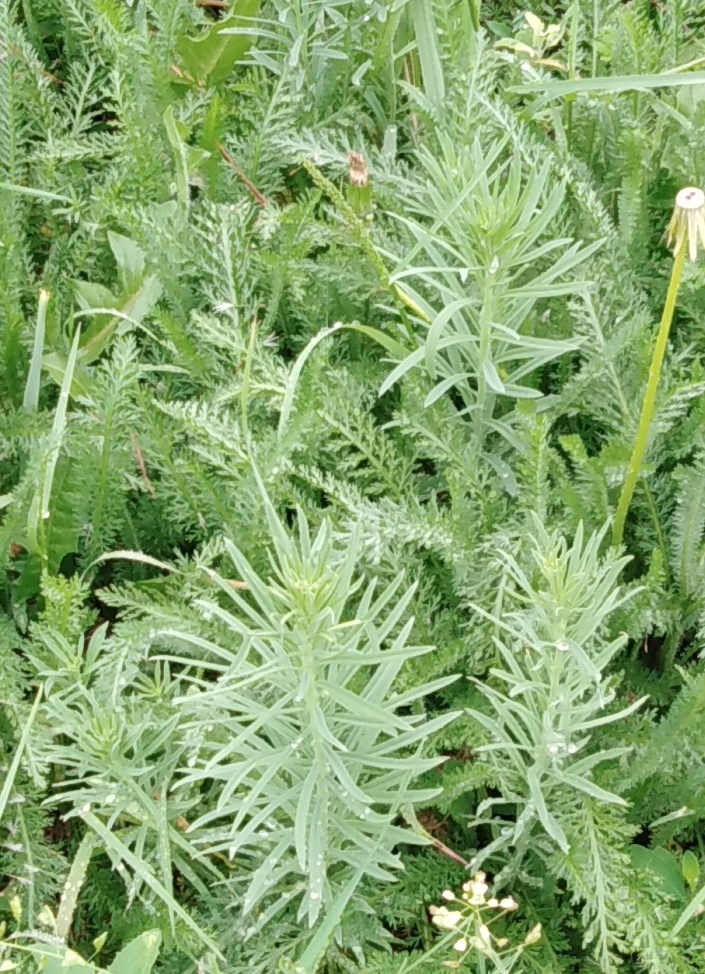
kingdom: Plantae
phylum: Tracheophyta
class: Magnoliopsida
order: Lamiales
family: Plantaginaceae
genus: Linaria
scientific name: Linaria vulgaris
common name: Butter and eggs
